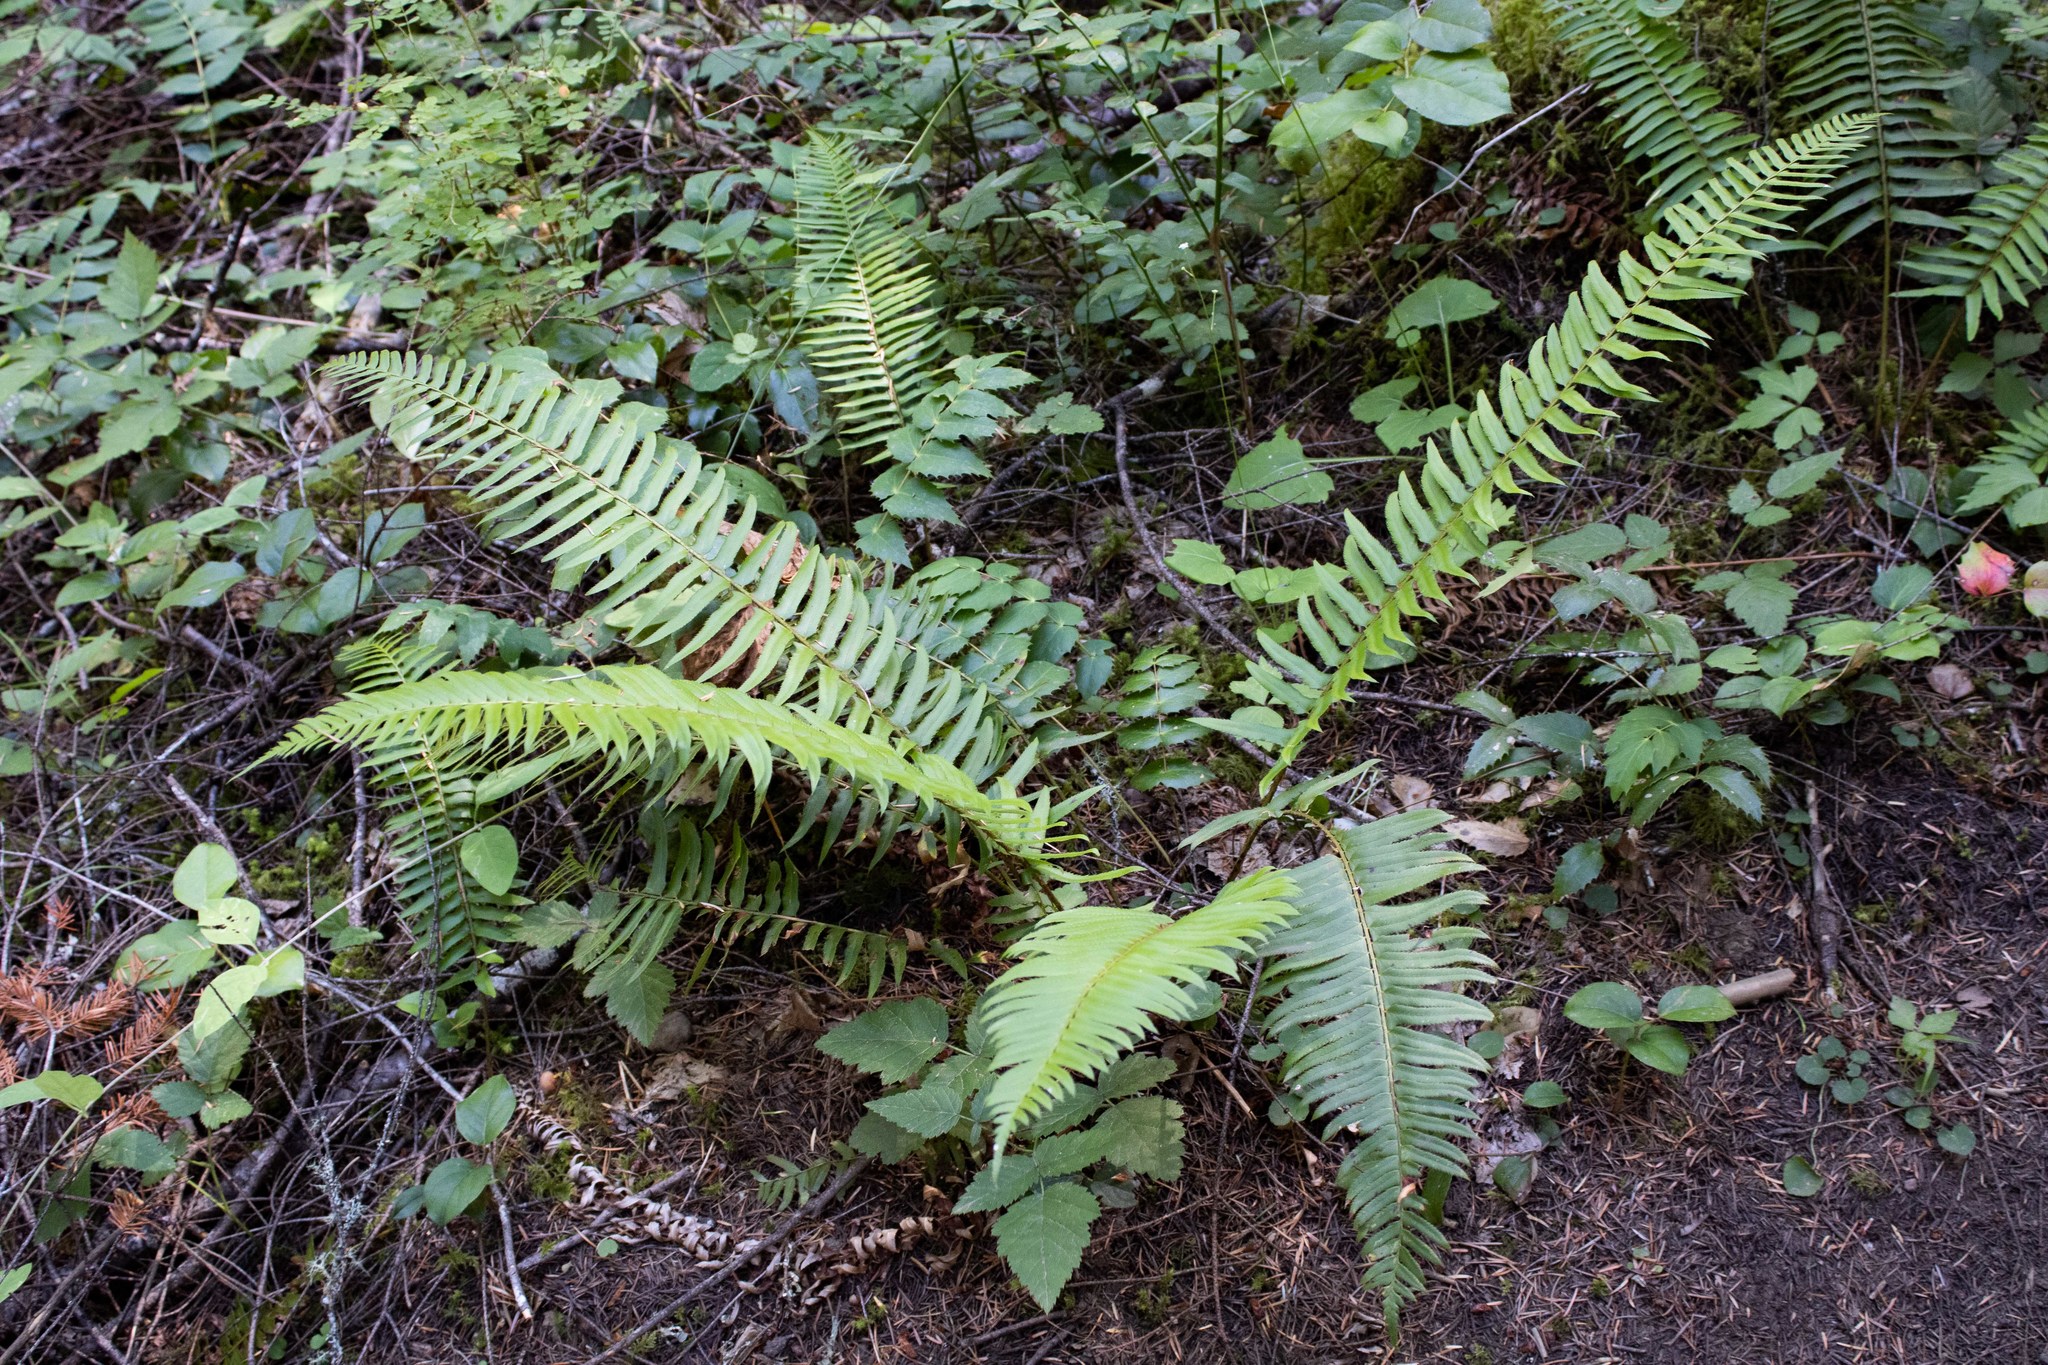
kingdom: Plantae
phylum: Tracheophyta
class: Polypodiopsida
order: Polypodiales
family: Dryopteridaceae
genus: Polystichum
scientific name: Polystichum munitum
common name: Western sword-fern
